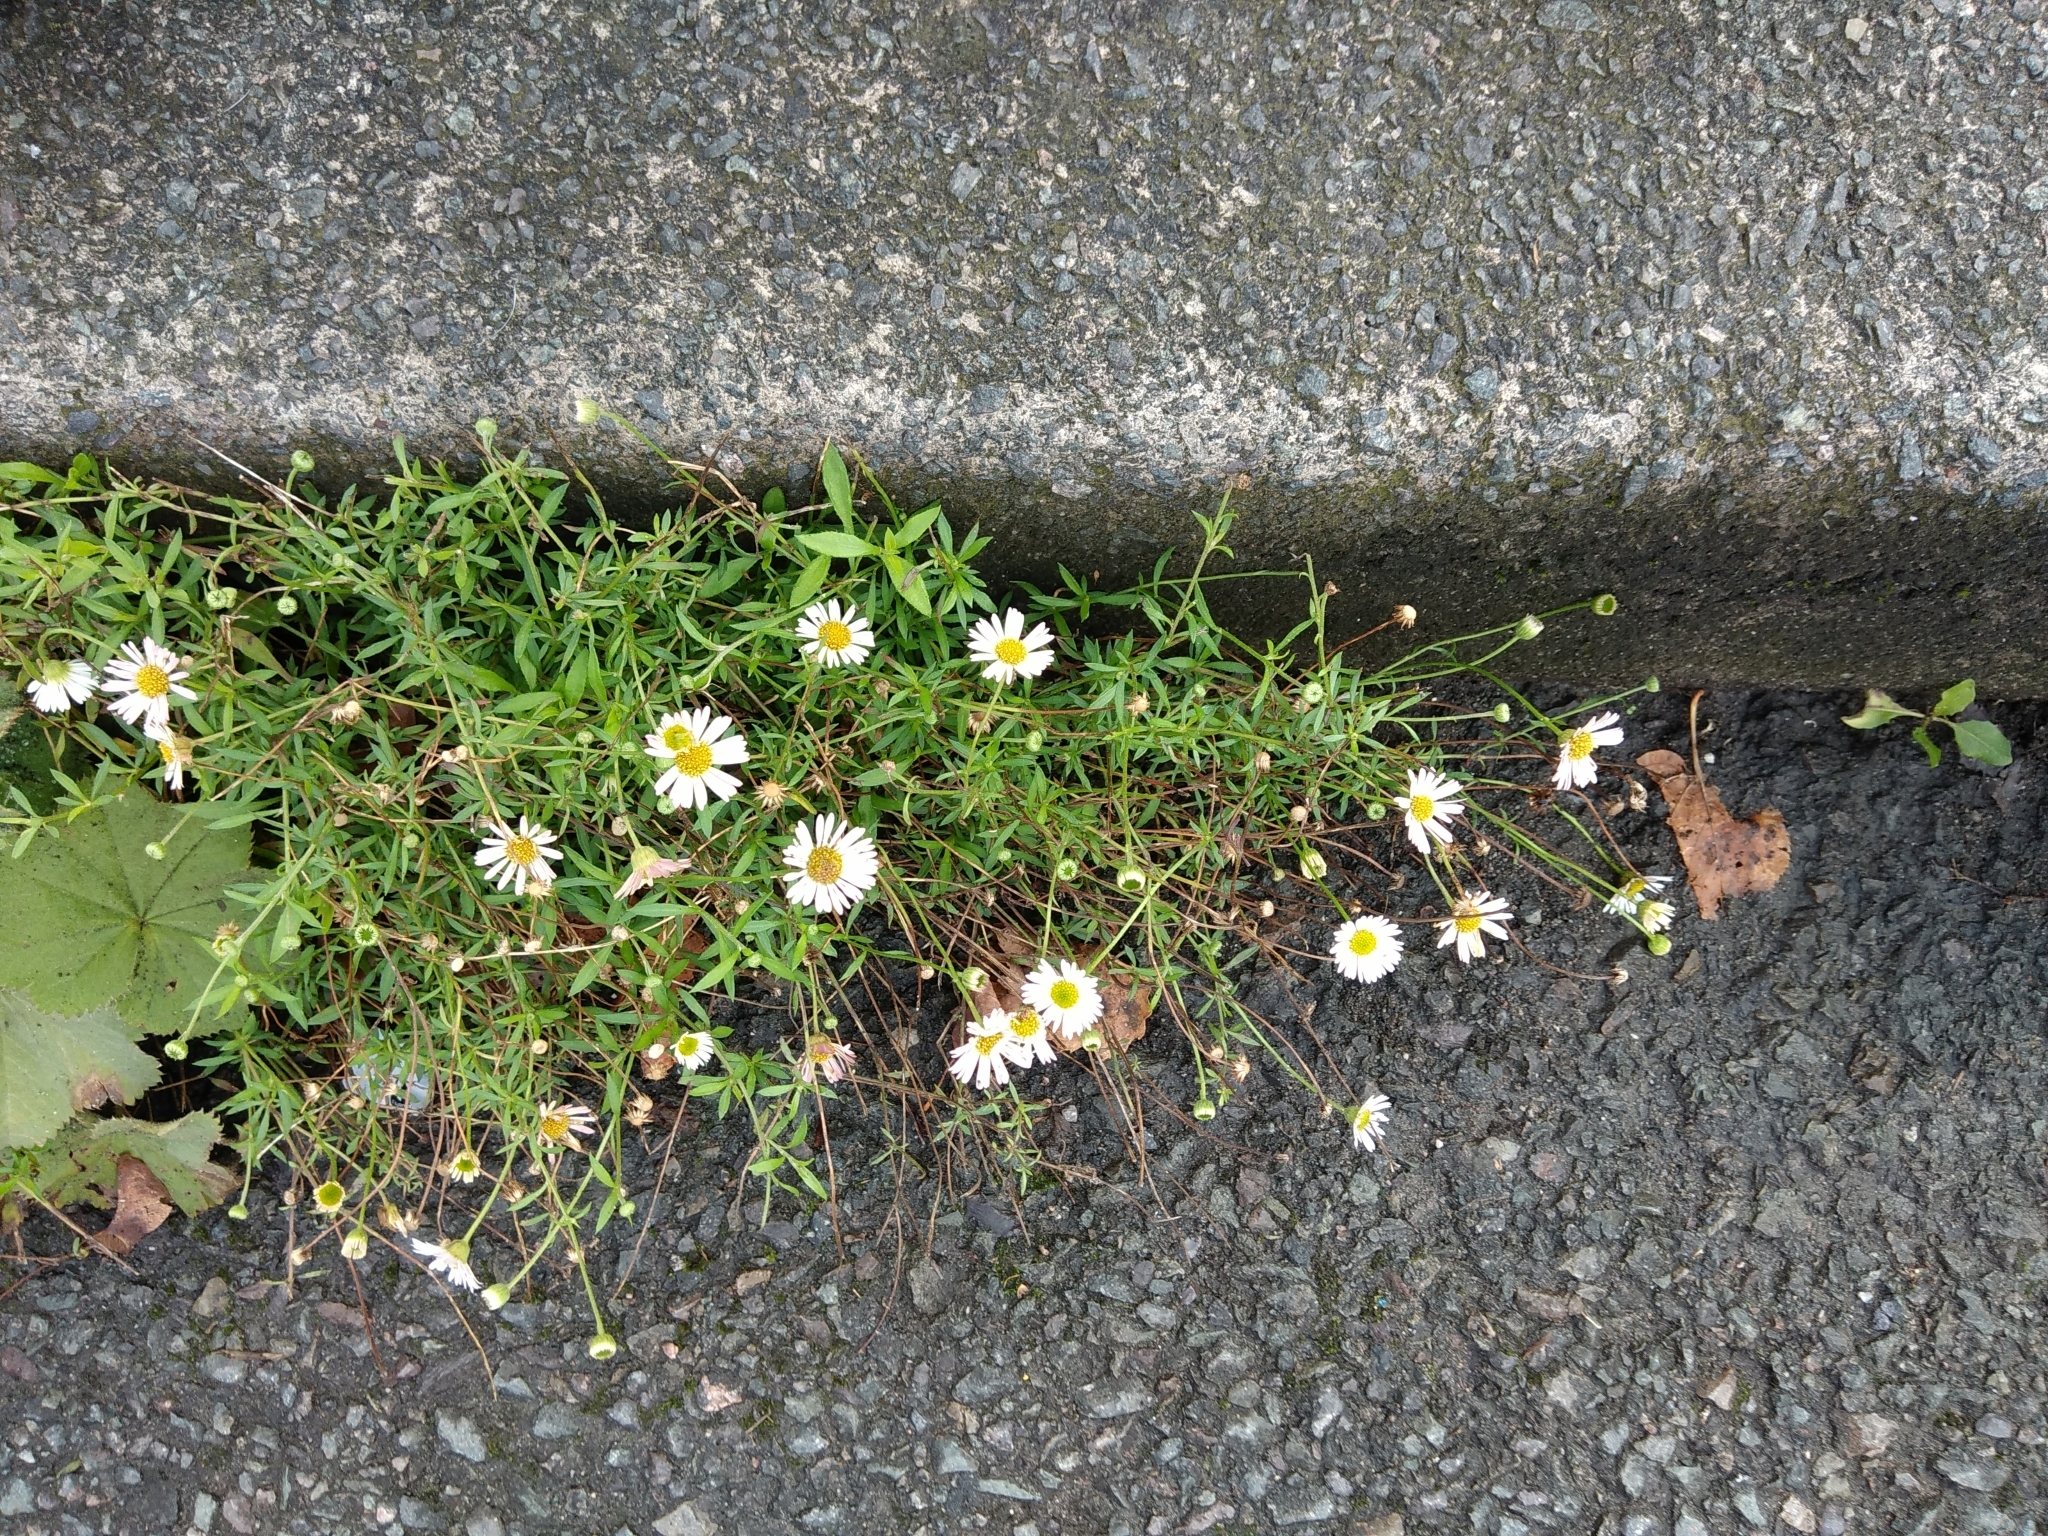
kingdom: Plantae
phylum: Tracheophyta
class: Magnoliopsida
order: Asterales
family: Asteraceae
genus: Erigeron
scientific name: Erigeron karvinskianus
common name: Mexican fleabane
